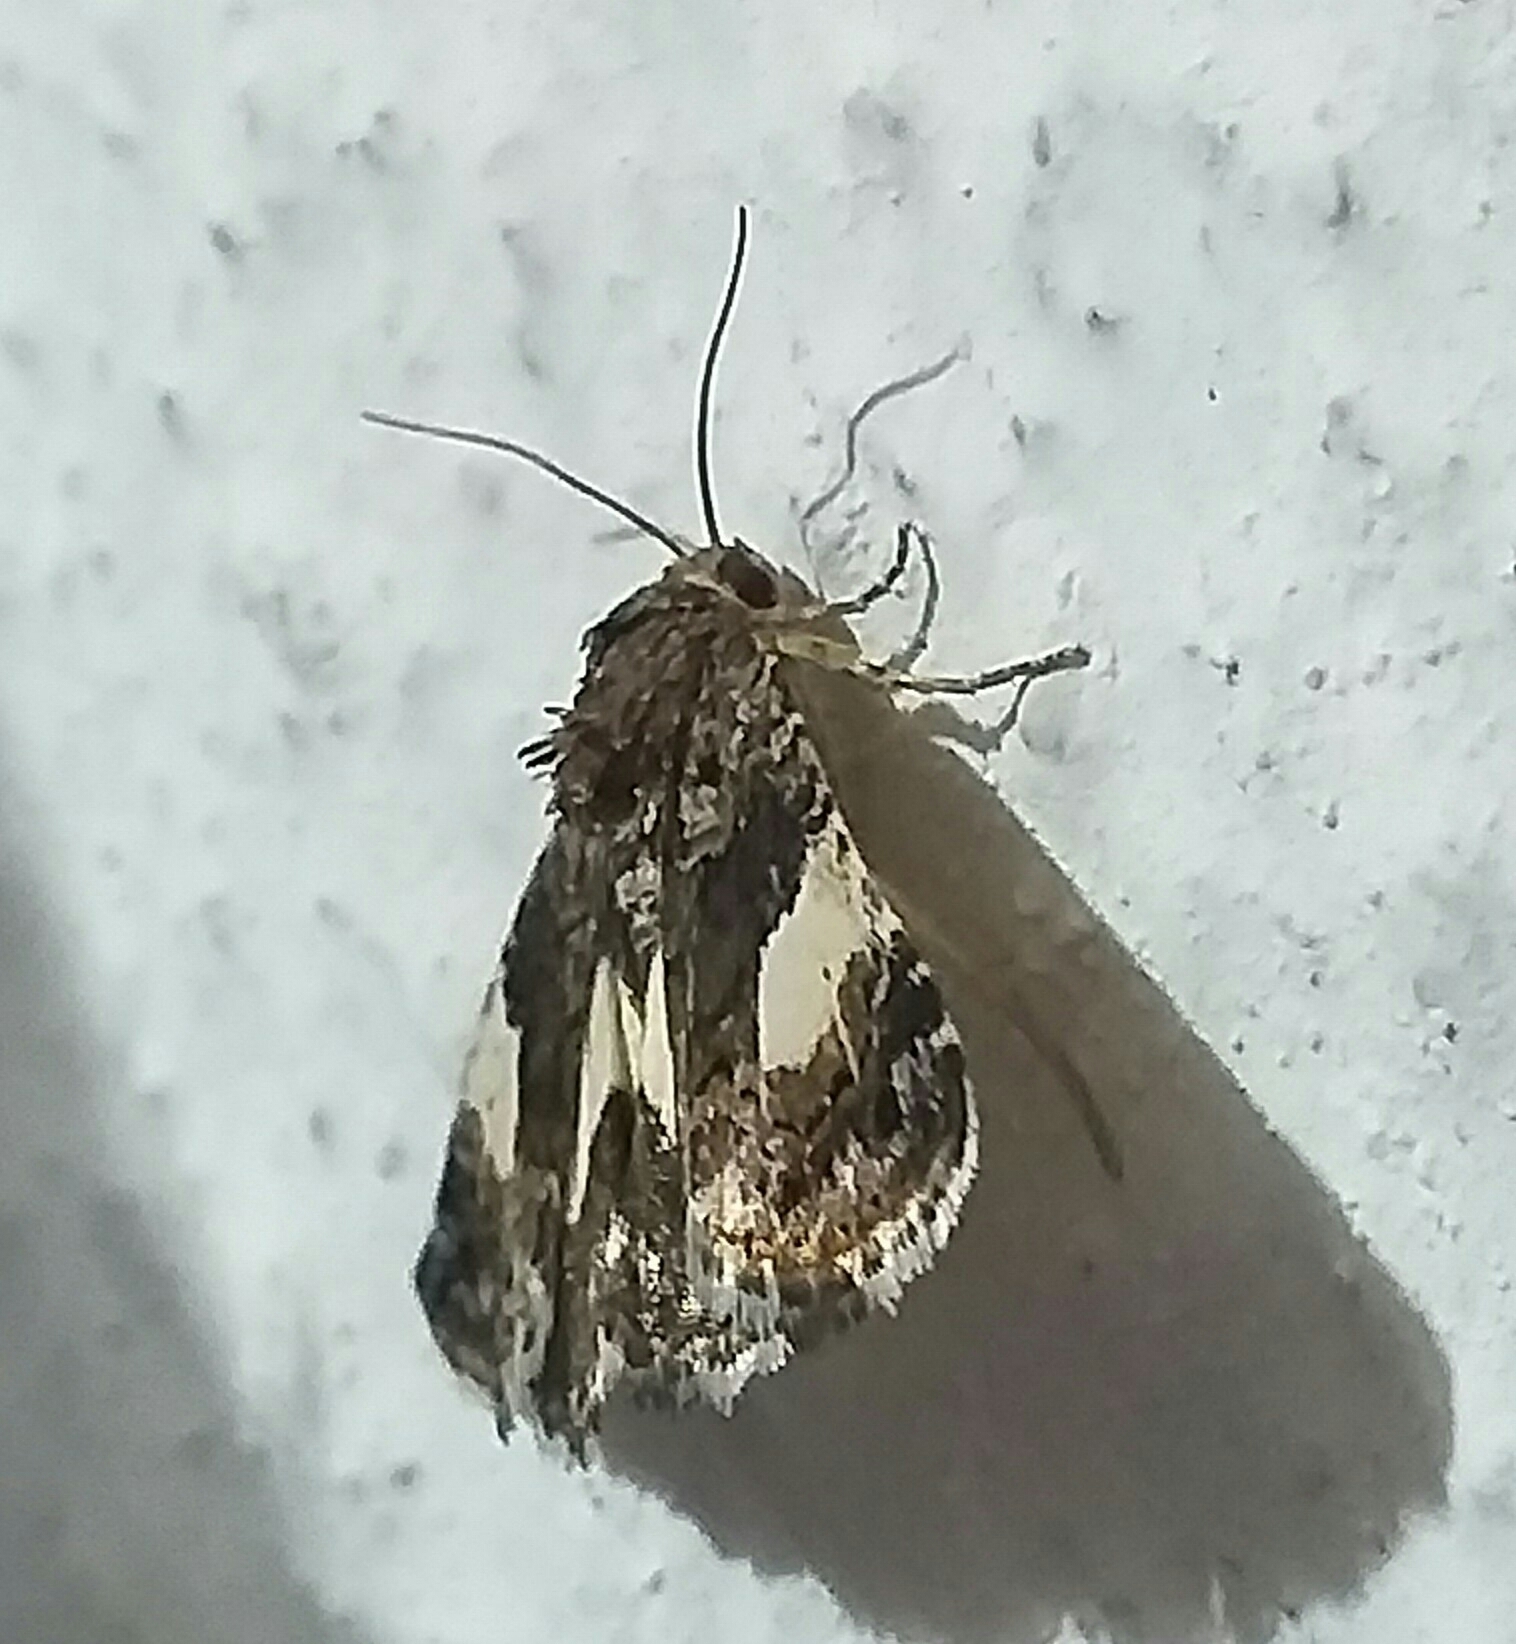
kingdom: Animalia
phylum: Arthropoda
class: Insecta
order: Lepidoptera
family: Erebidae
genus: Tyta
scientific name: Tyta luctuosa
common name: Four-spotted
